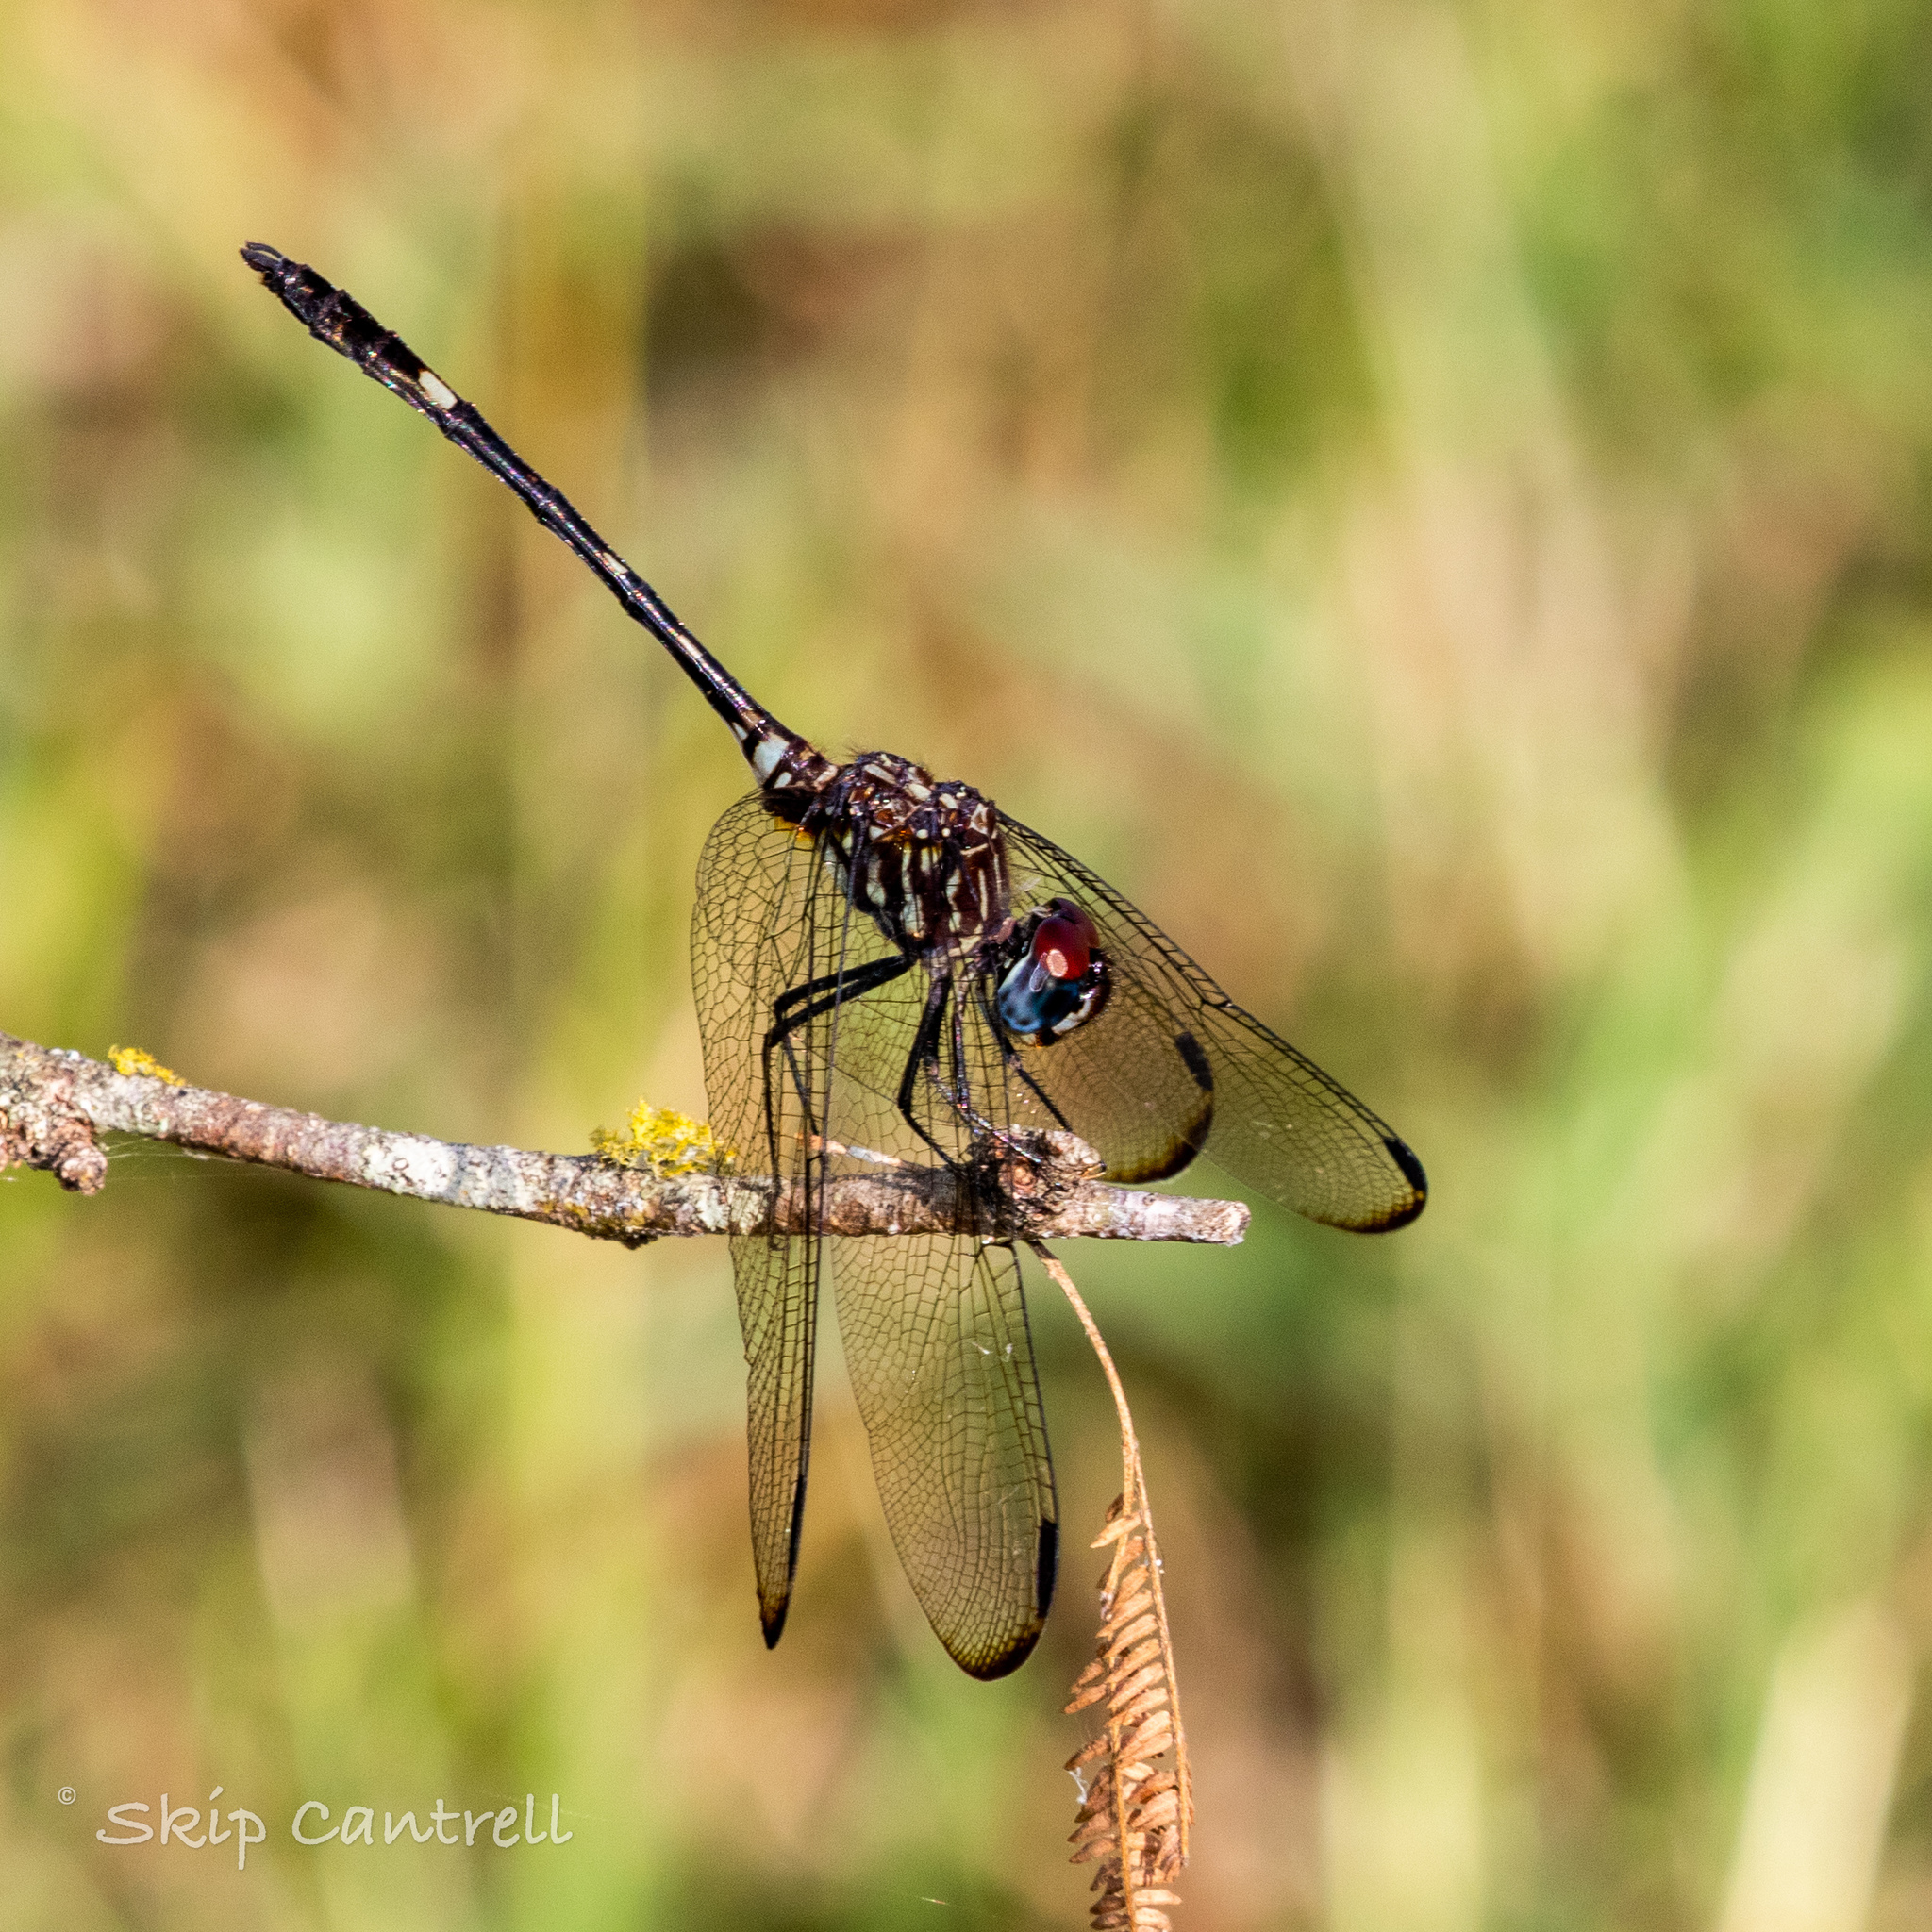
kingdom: Animalia
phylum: Arthropoda
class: Insecta
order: Odonata
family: Libellulidae
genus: Dythemis
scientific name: Dythemis velox
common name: Swift setwing
